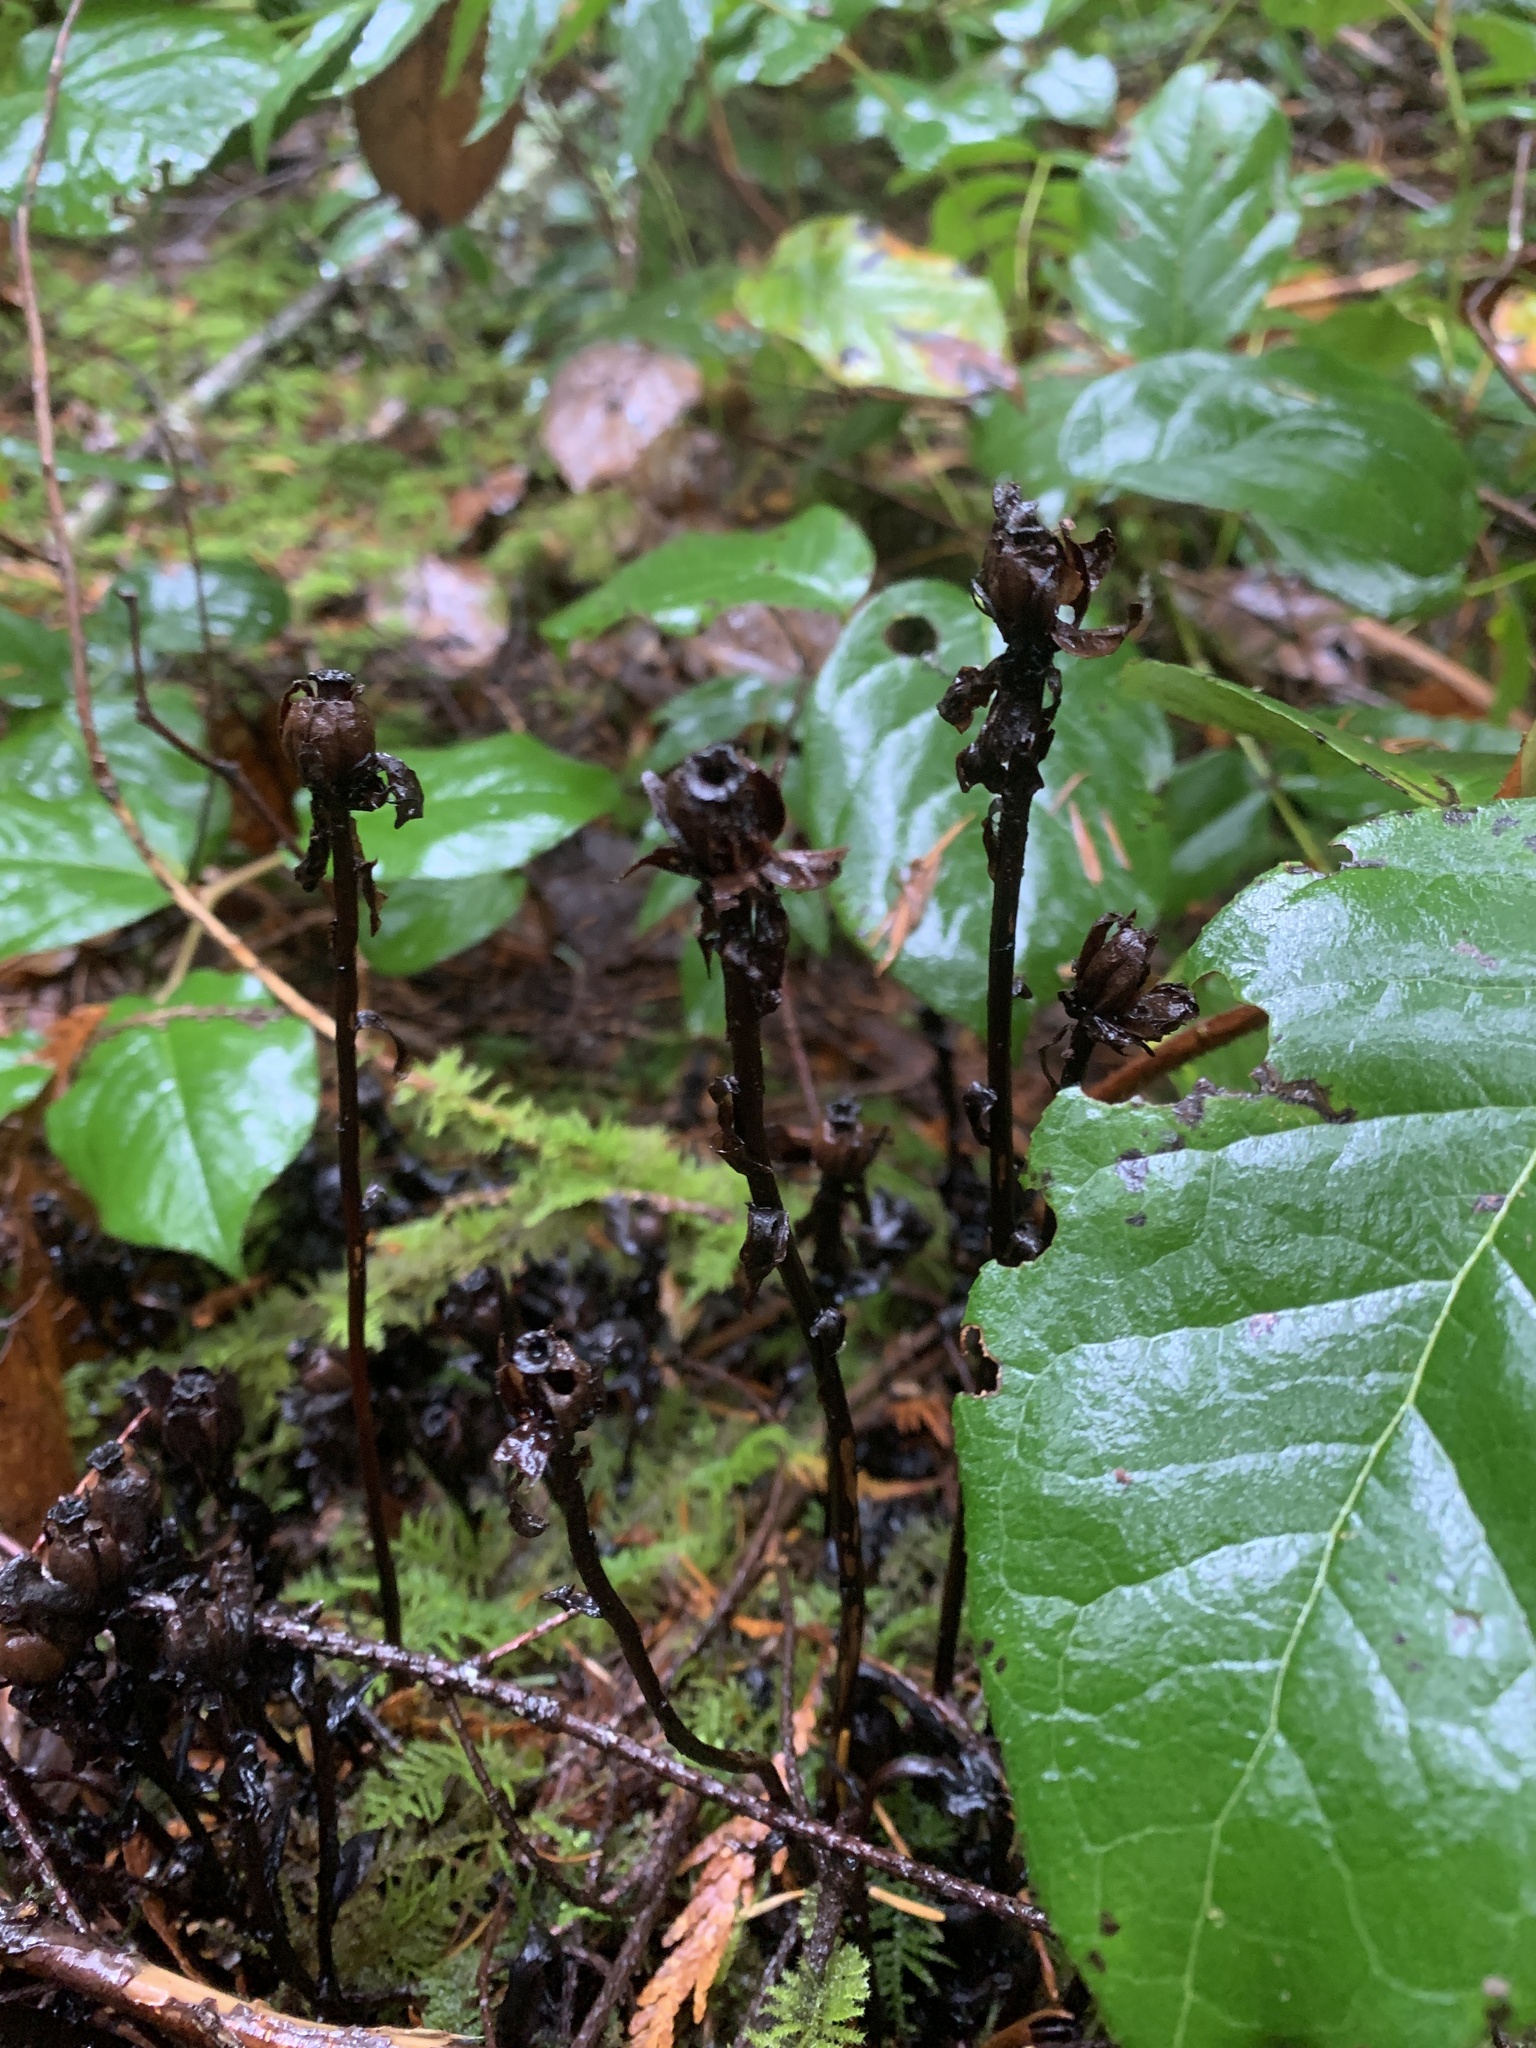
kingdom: Plantae
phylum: Tracheophyta
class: Magnoliopsida
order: Ericales
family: Ericaceae
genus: Monotropa
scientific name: Monotropa uniflora
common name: Convulsion root
